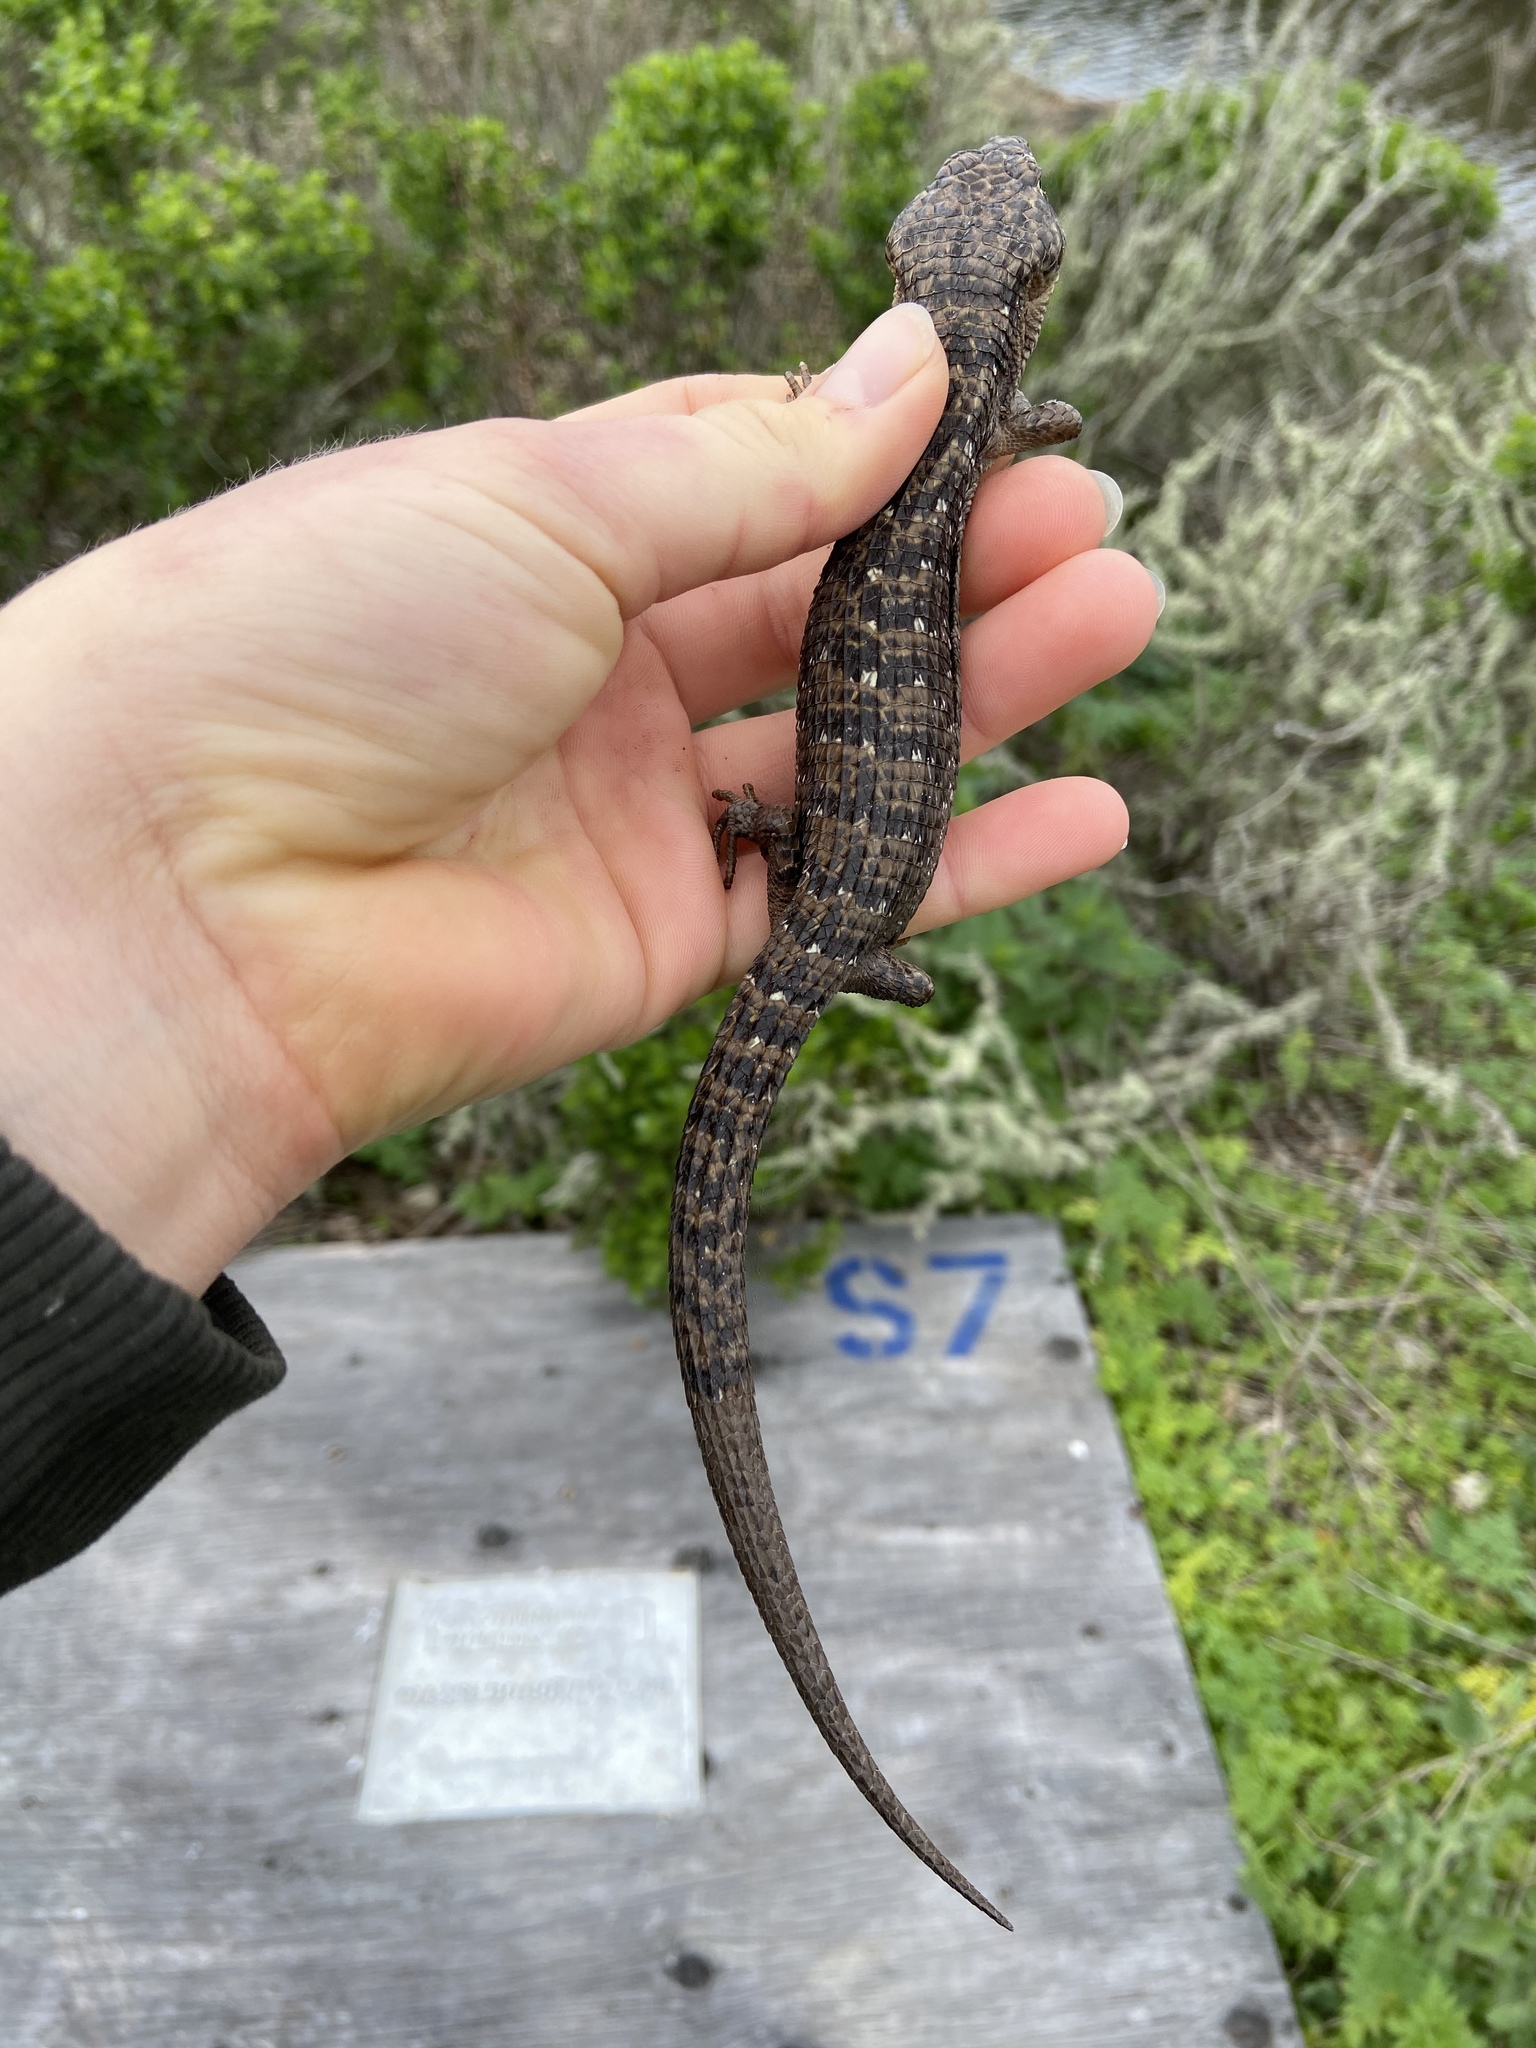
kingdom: Animalia
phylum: Chordata
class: Squamata
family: Anguidae
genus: Elgaria
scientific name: Elgaria multicarinata
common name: Southern alligator lizard
